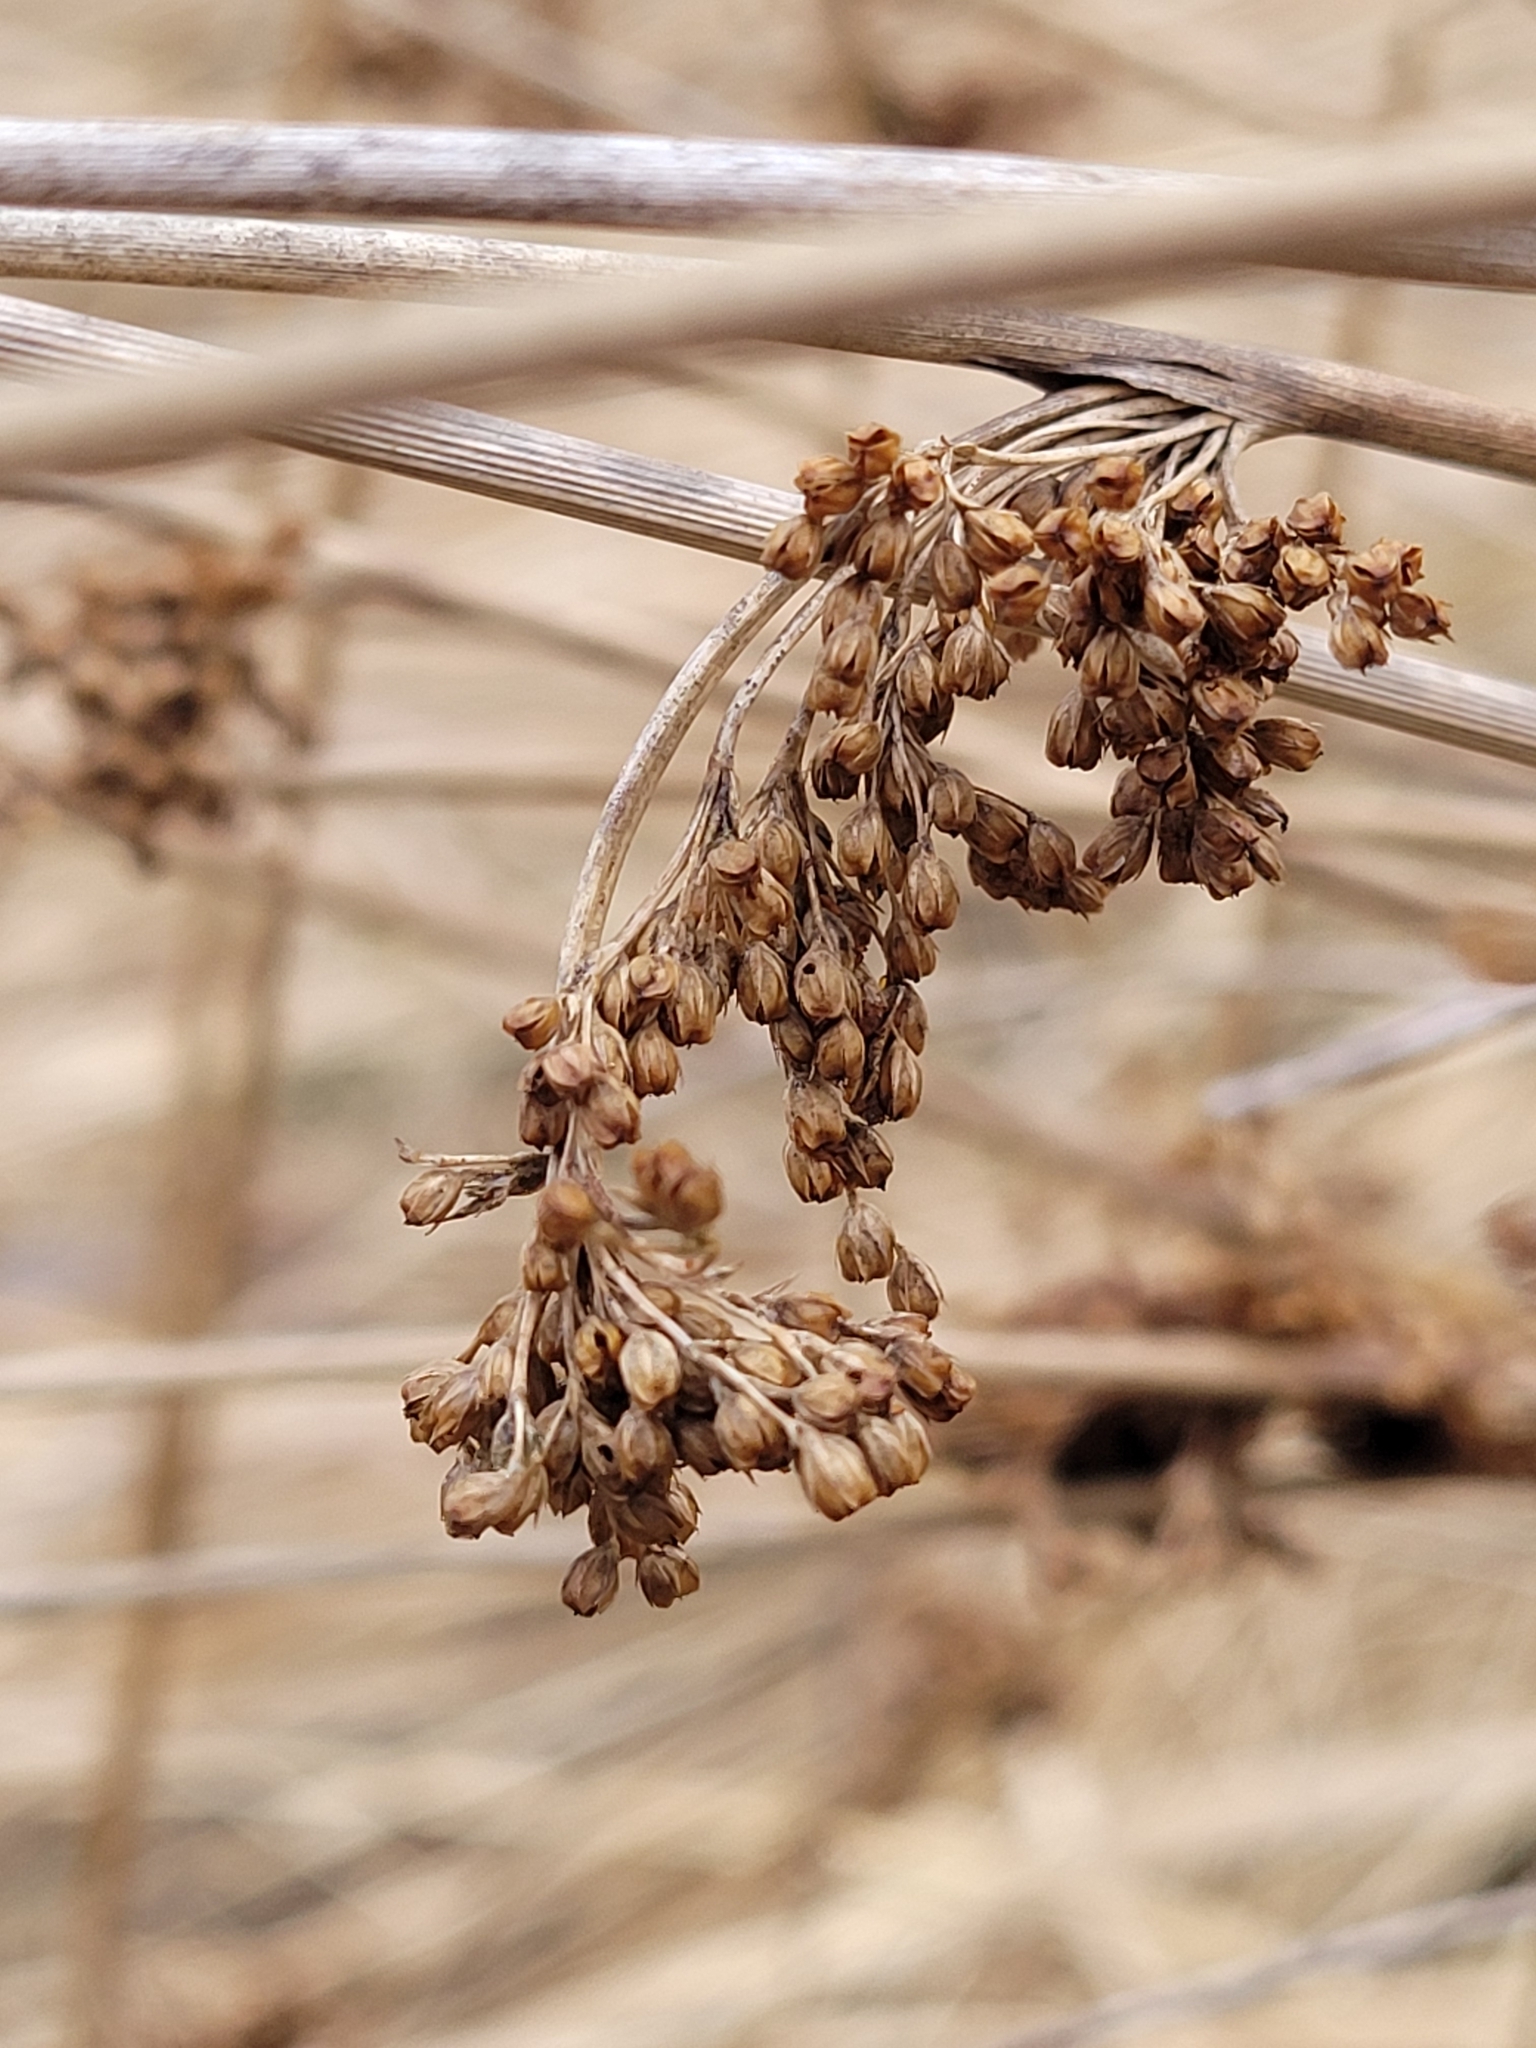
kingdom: Plantae
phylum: Tracheophyta
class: Liliopsida
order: Poales
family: Juncaceae
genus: Juncus
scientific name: Juncus effusus
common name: Soft rush
